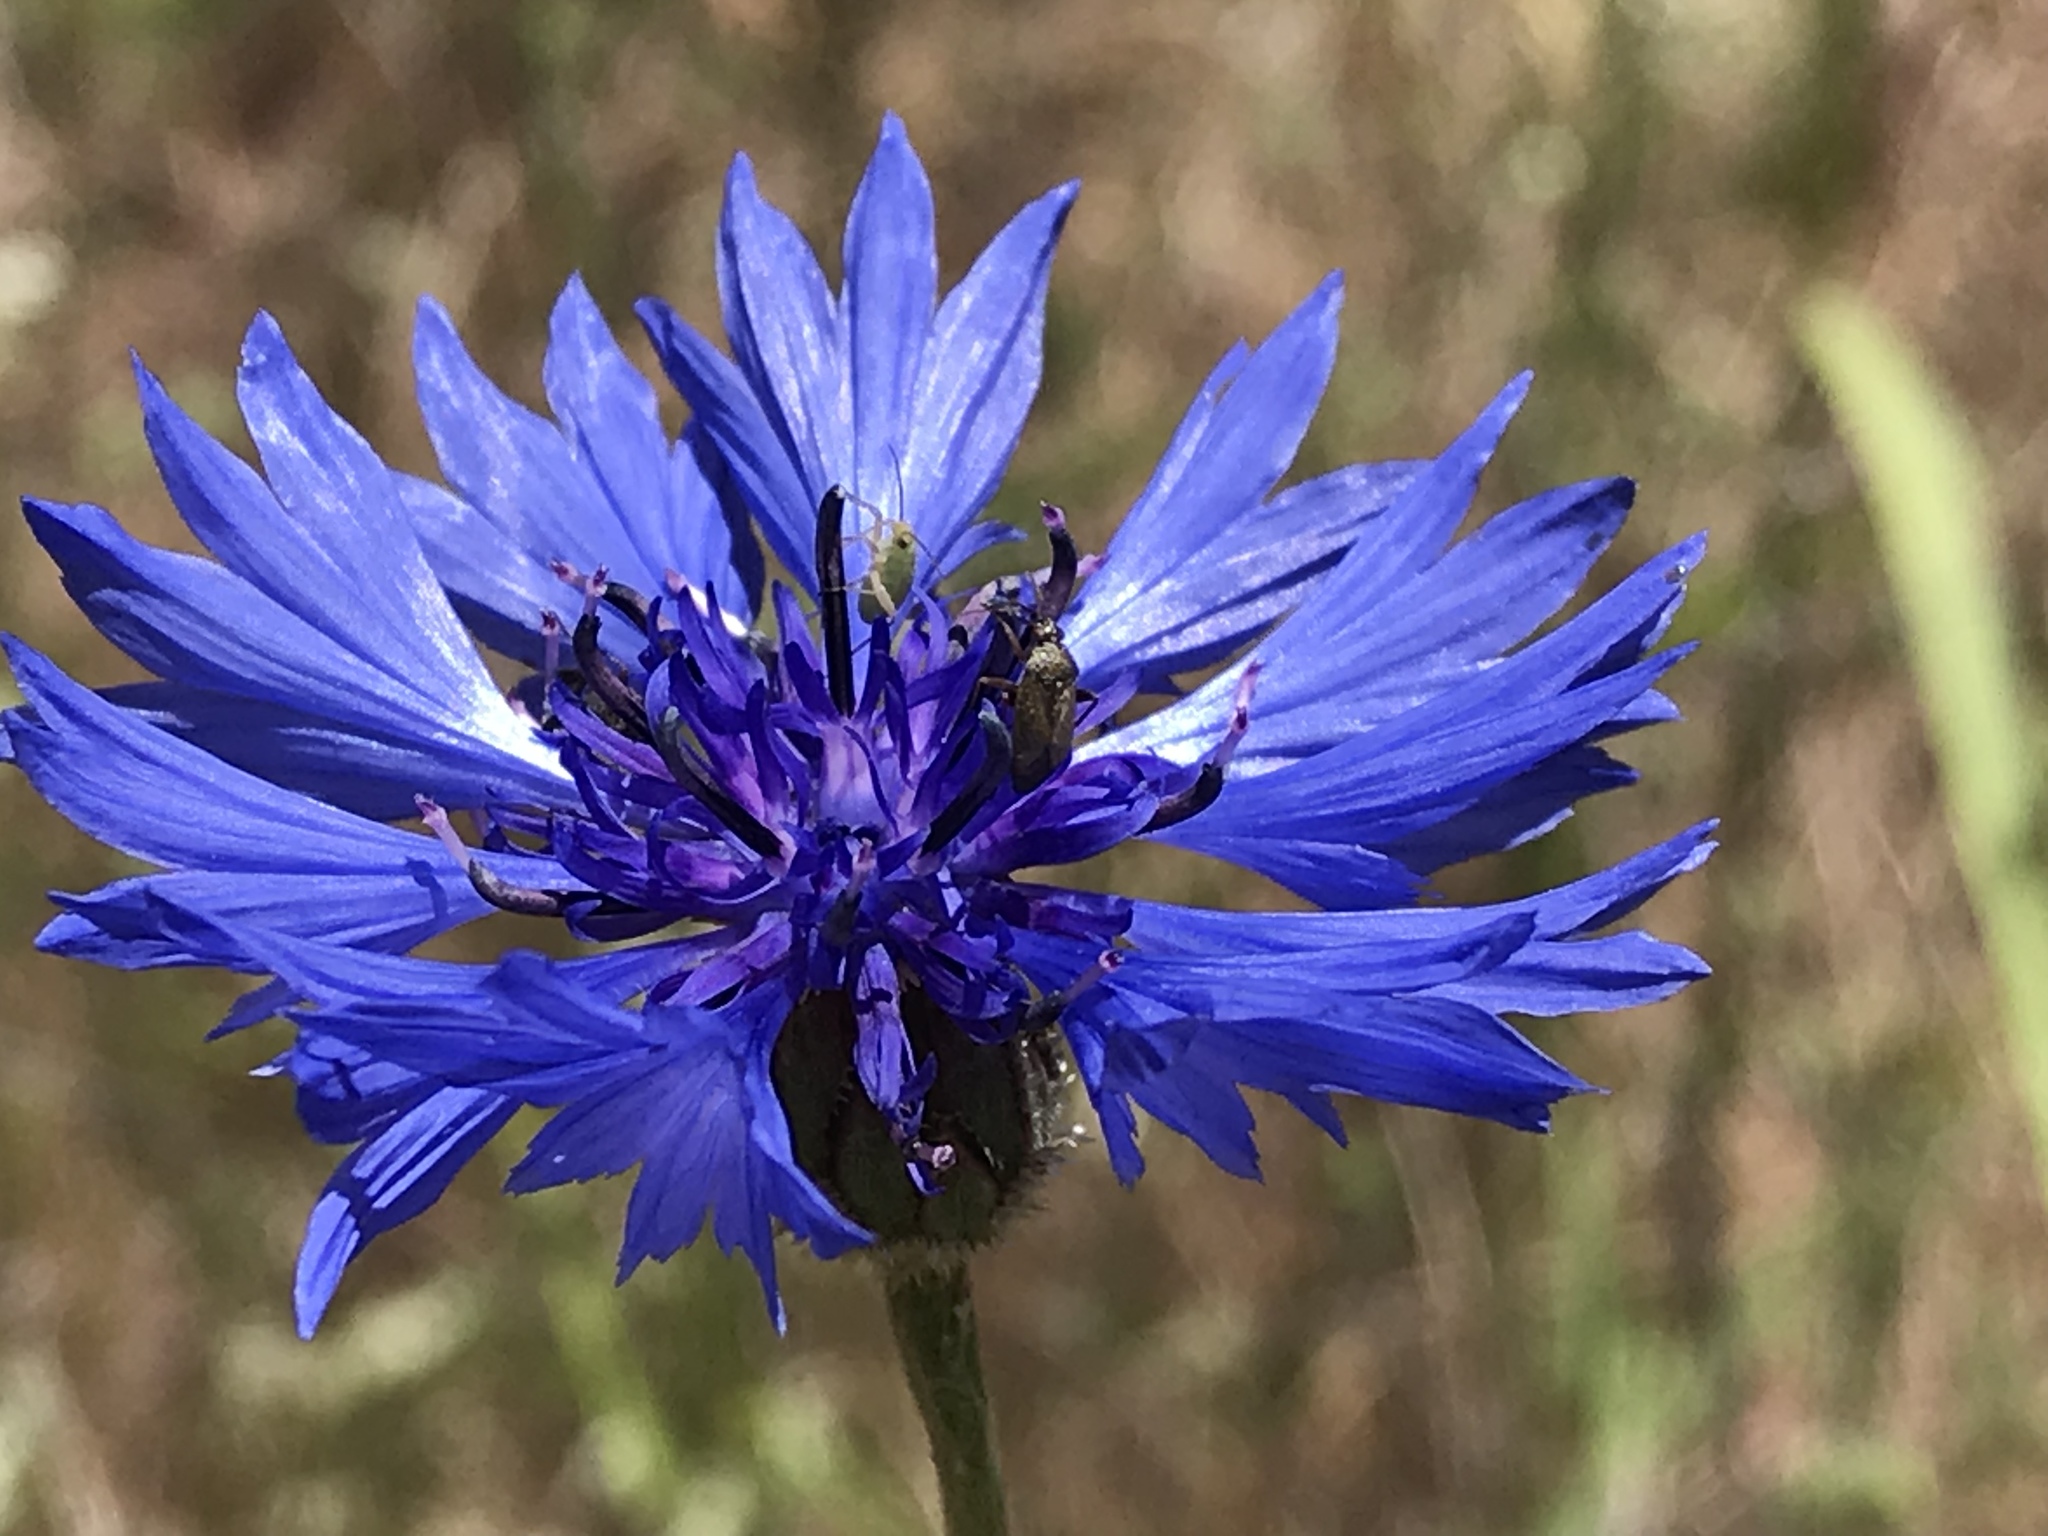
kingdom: Plantae
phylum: Tracheophyta
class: Magnoliopsida
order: Asterales
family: Asteraceae
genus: Centaurea
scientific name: Centaurea cyanus
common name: Cornflower
